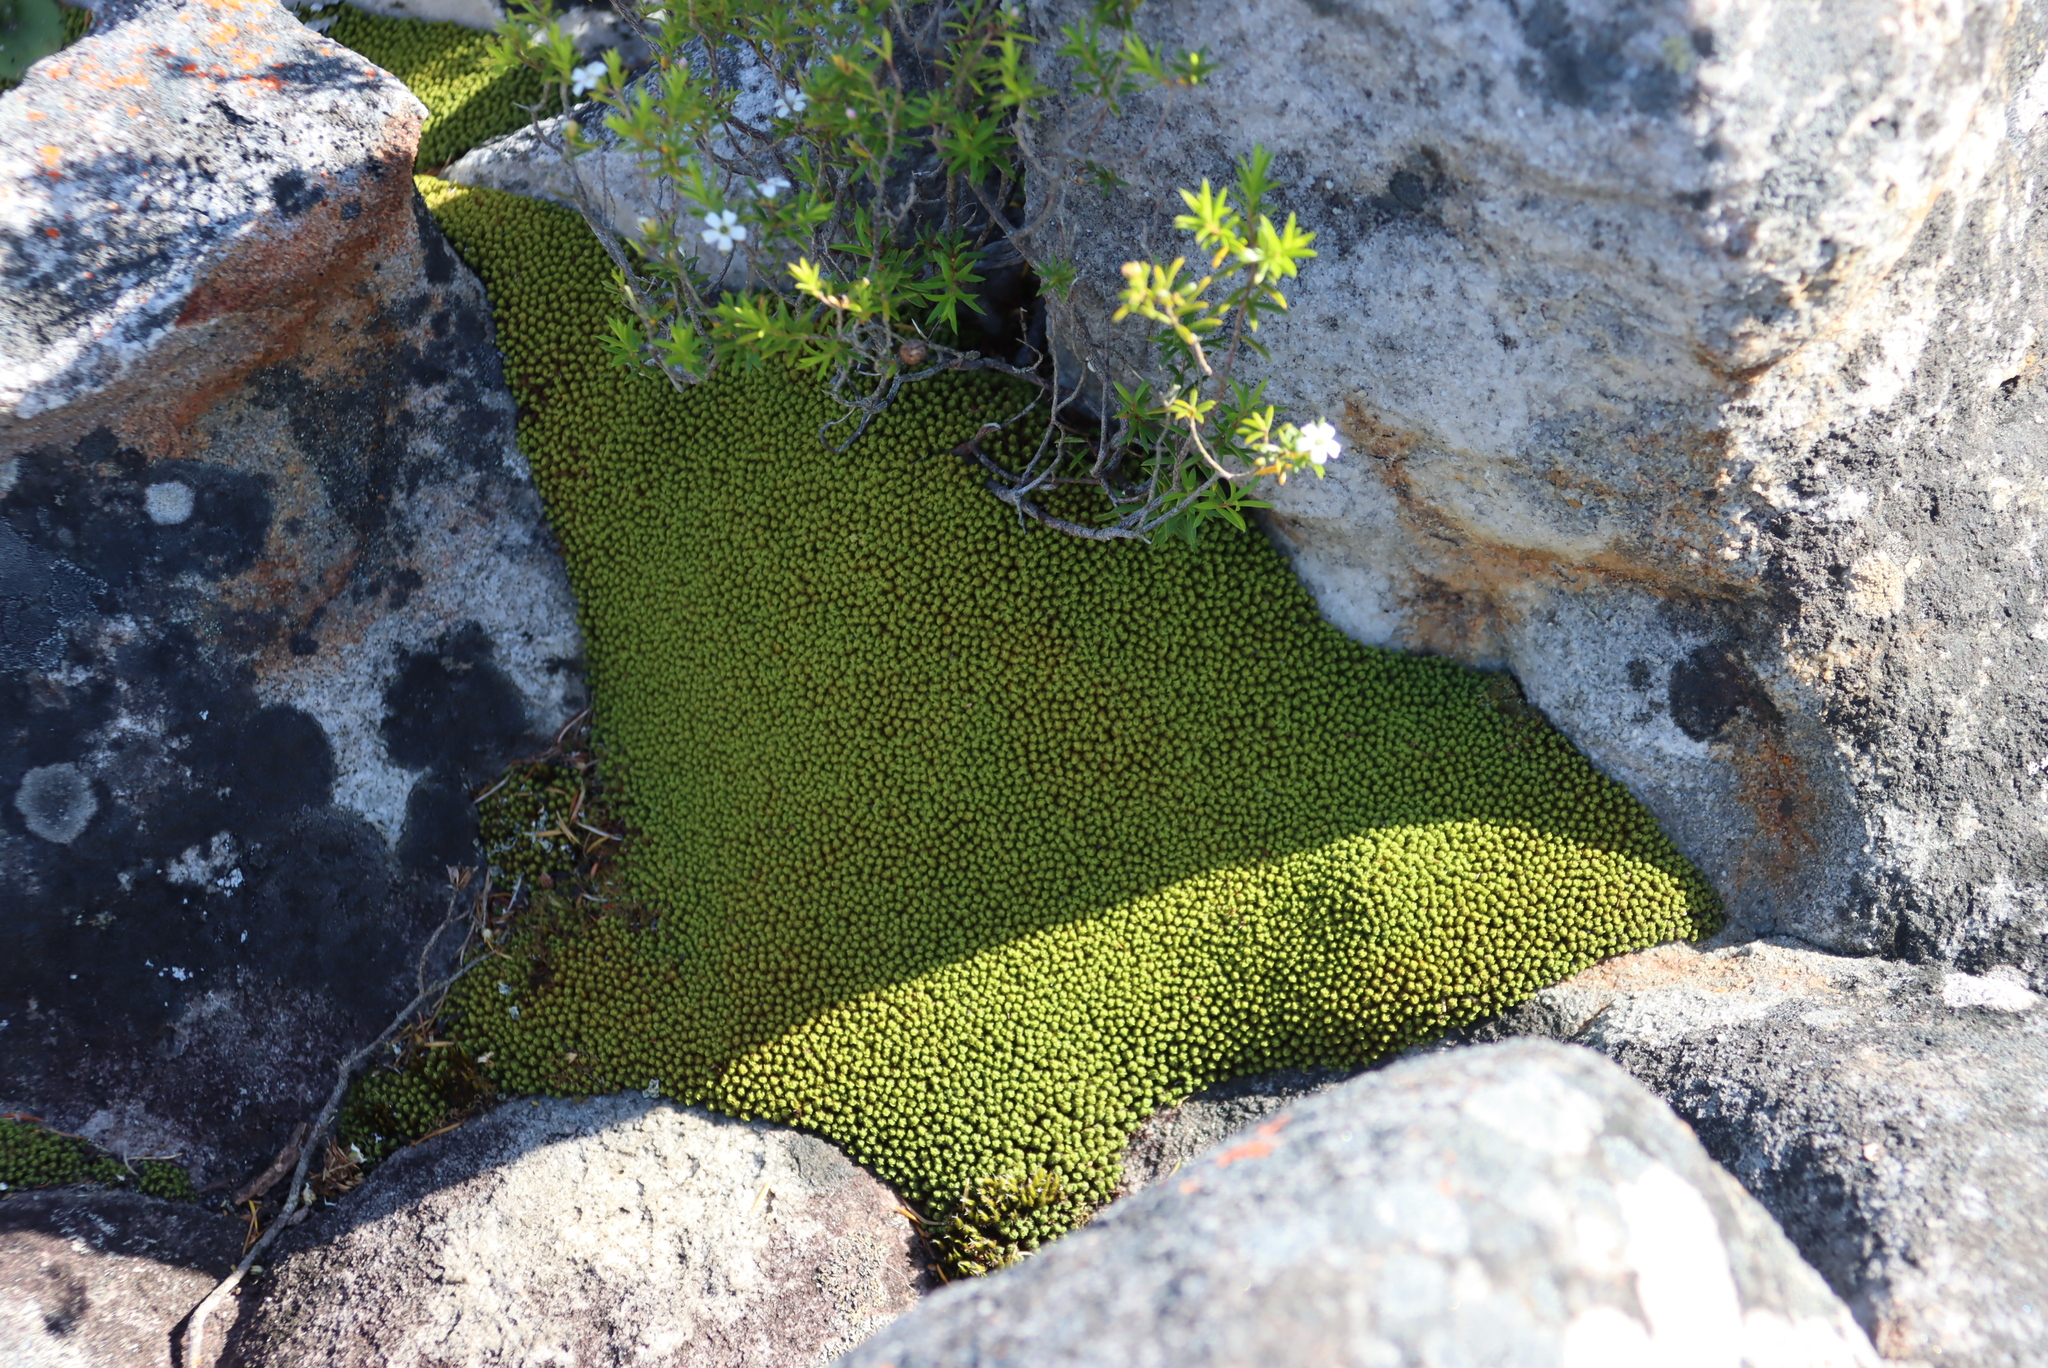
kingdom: Plantae
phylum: Bryophyta
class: Bryopsida
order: Dicranales
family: Hypodontiaceae
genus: Hypodontium
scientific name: Hypodontium pomiforme
